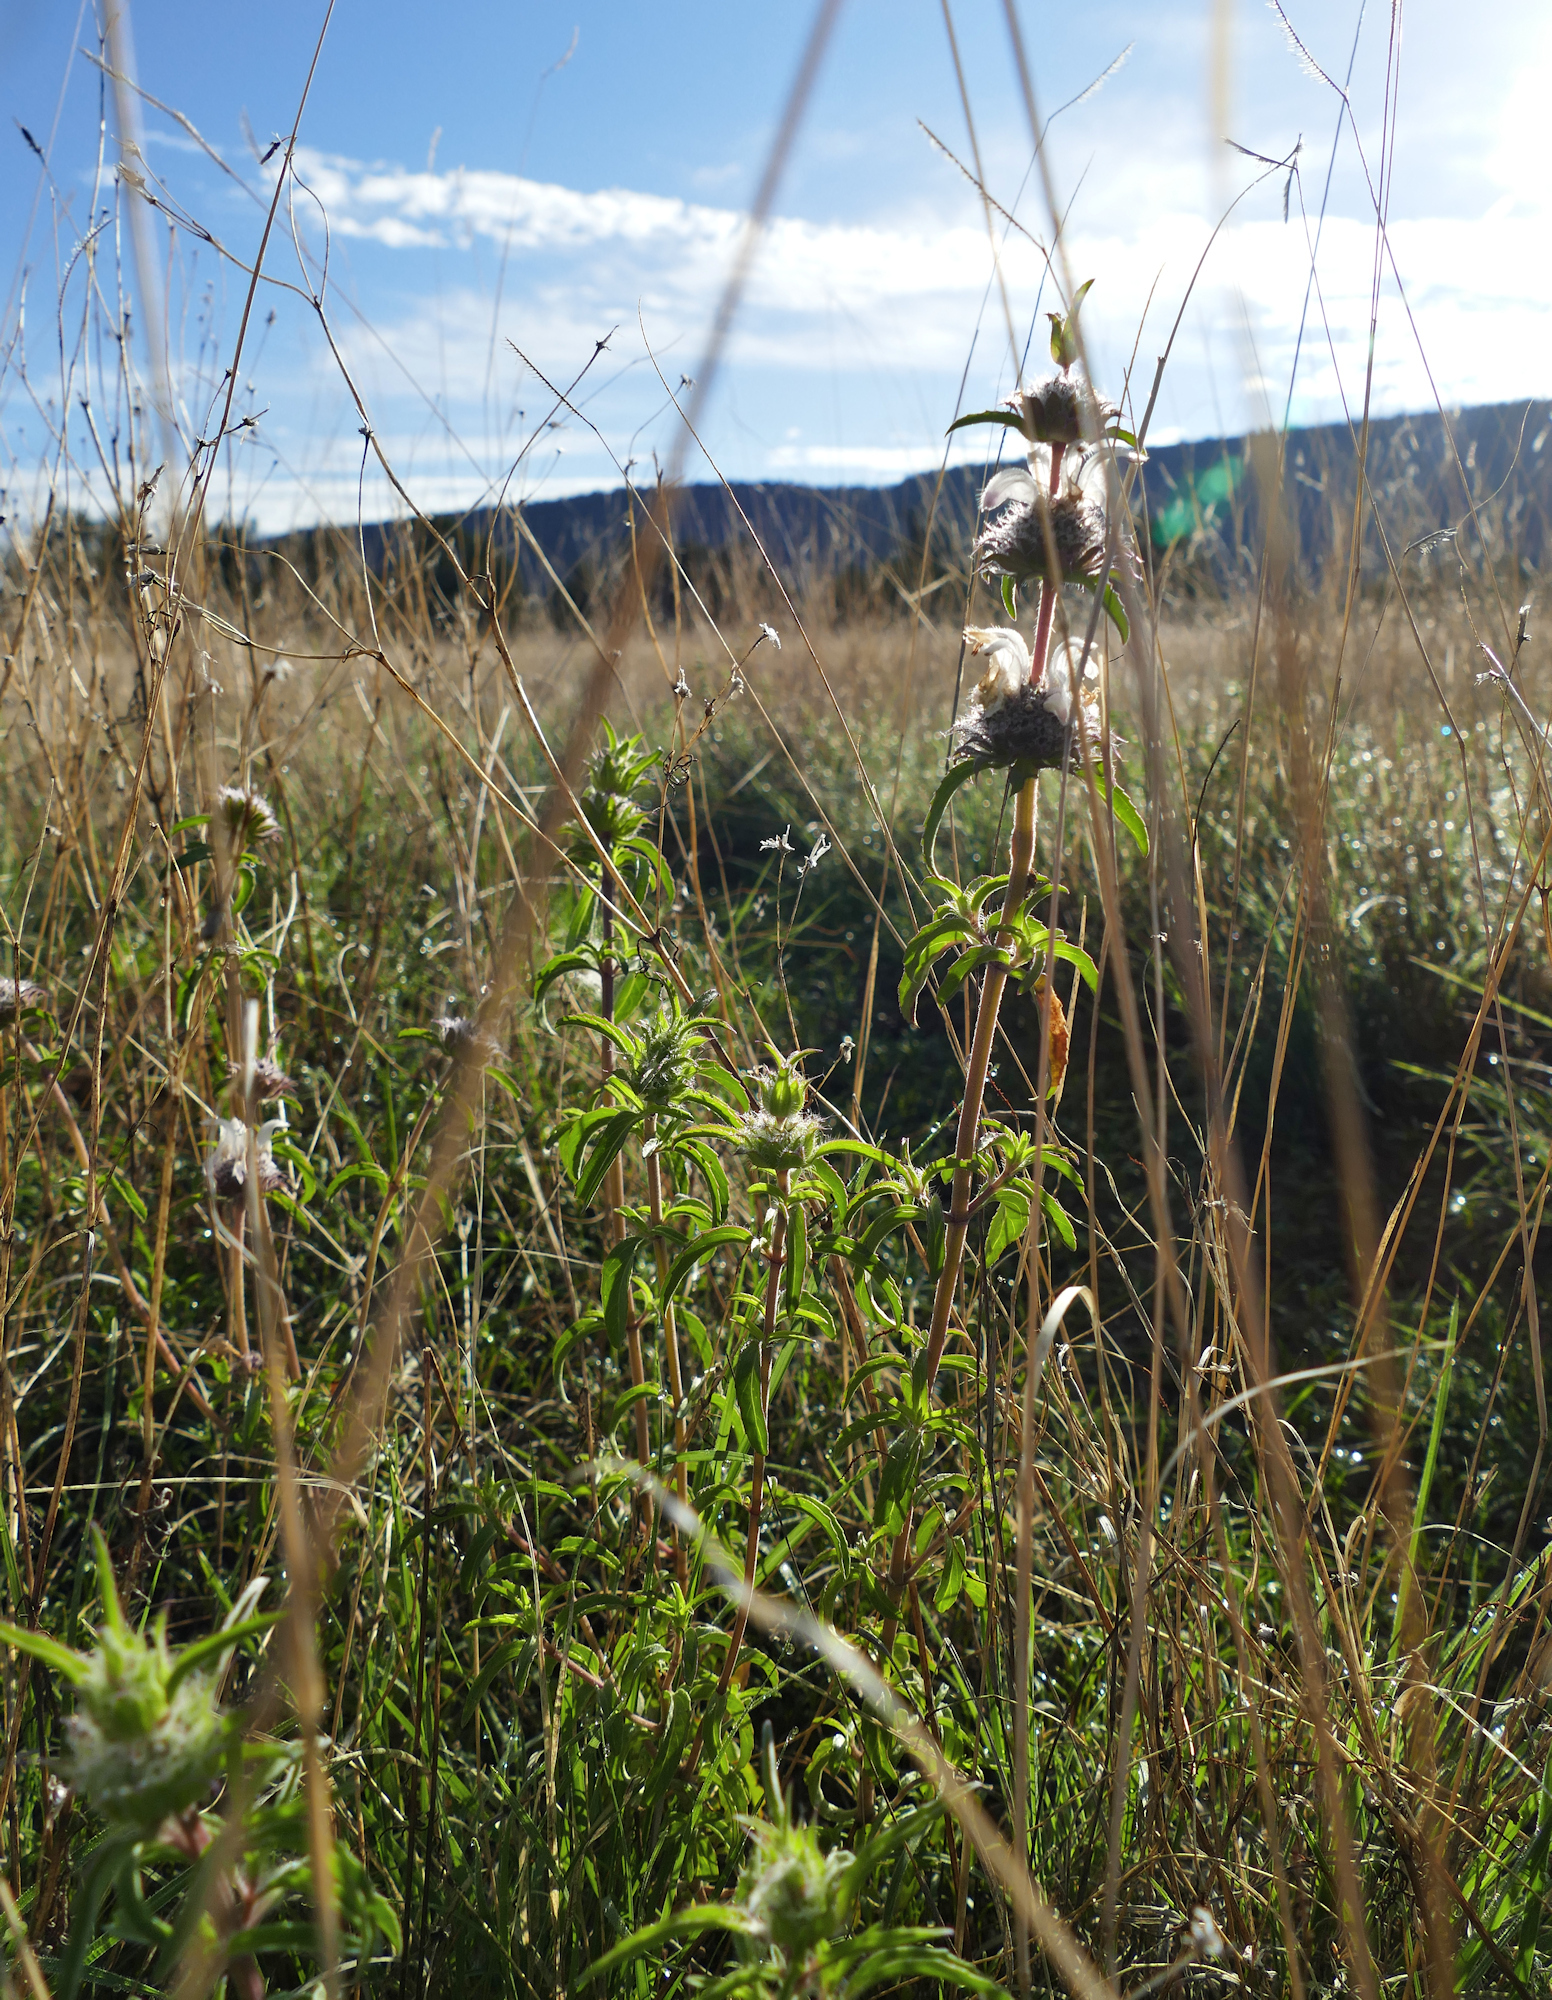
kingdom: Plantae
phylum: Tracheophyta
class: Magnoliopsida
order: Lamiales
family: Lamiaceae
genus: Monarda
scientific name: Monarda pectinata
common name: Plains beebalm
